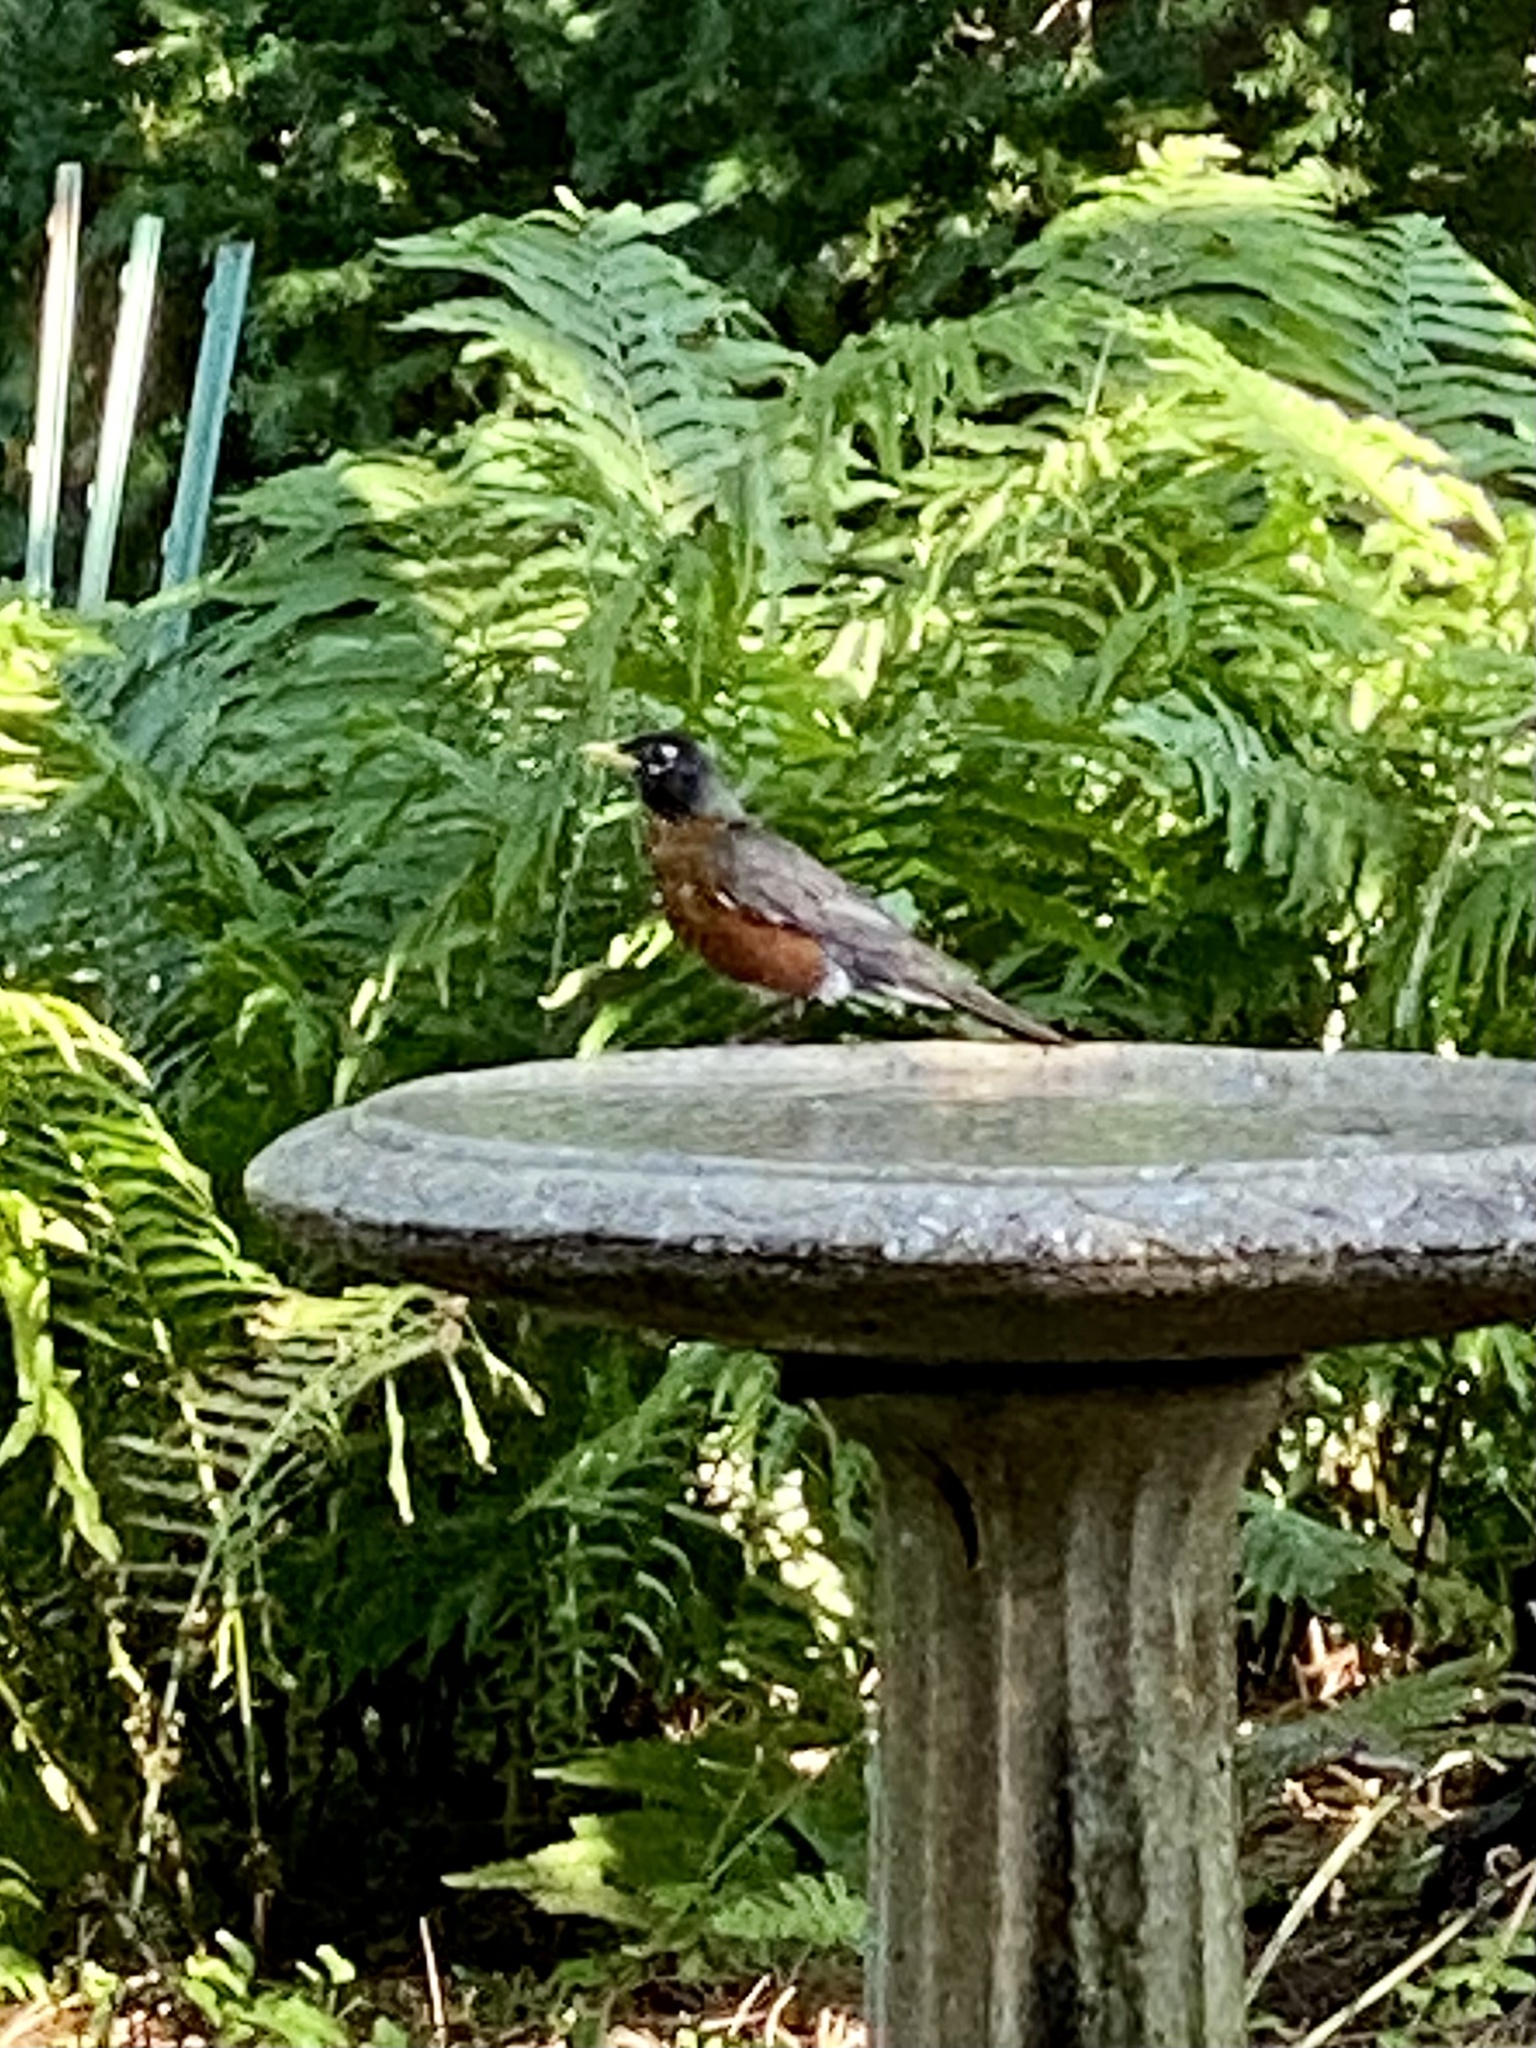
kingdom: Animalia
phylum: Chordata
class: Aves
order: Passeriformes
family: Turdidae
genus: Turdus
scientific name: Turdus migratorius
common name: American robin
